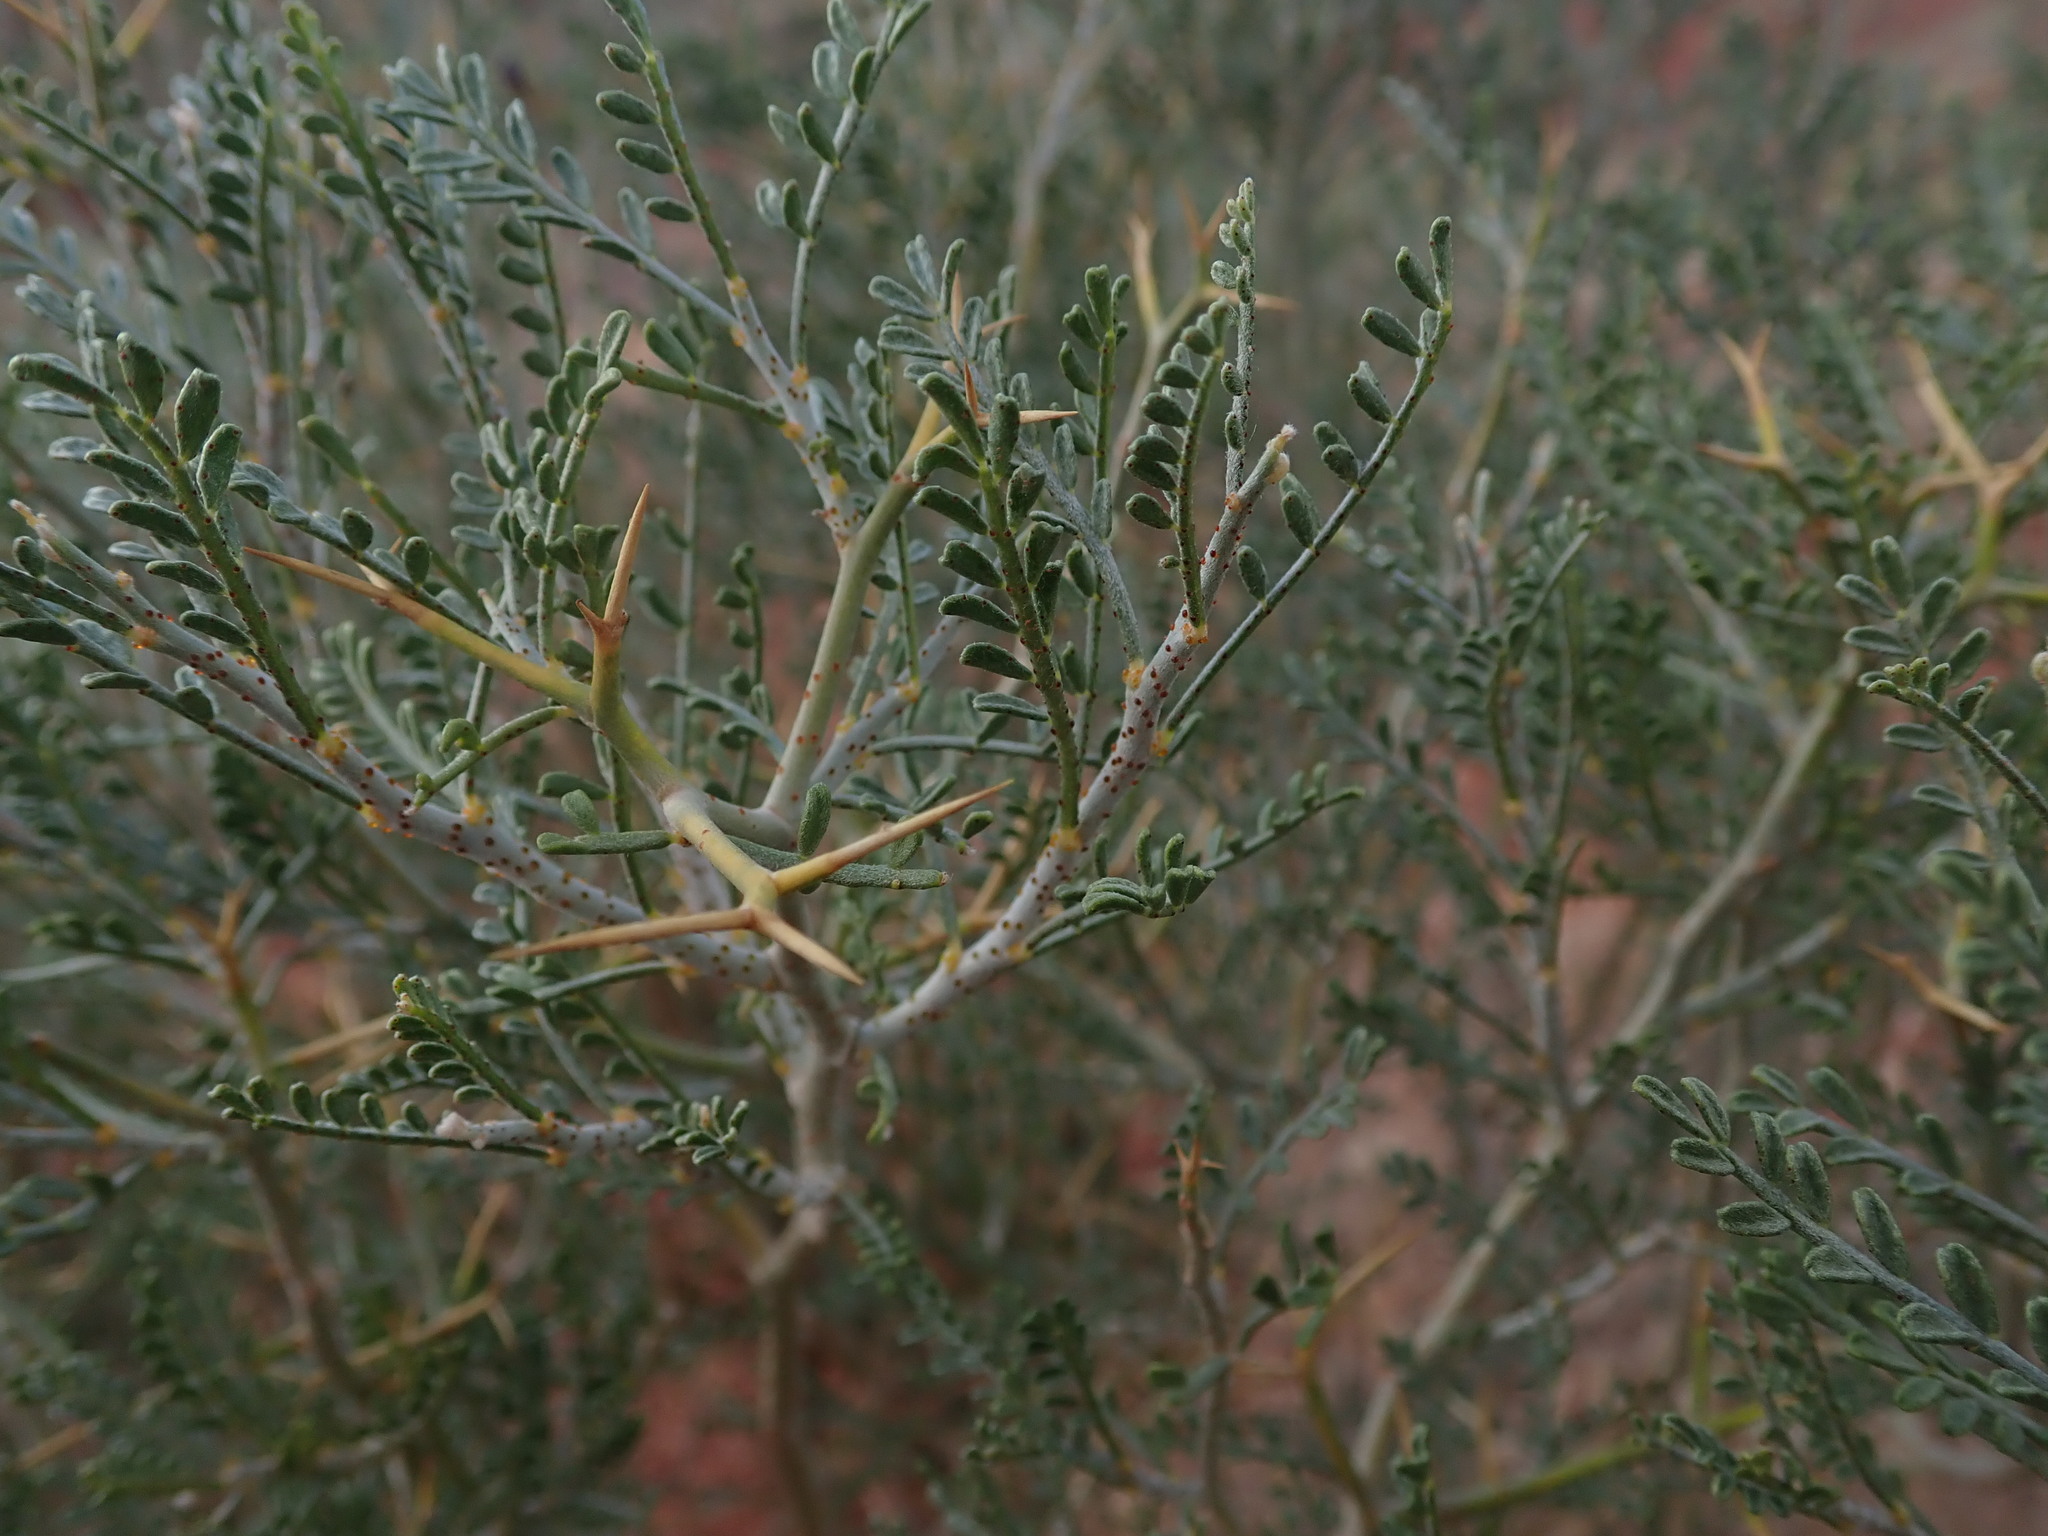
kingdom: Plantae
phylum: Tracheophyta
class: Magnoliopsida
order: Fabales
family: Fabaceae
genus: Psorothamnus
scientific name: Psorothamnus thompsoniae
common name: Thompson's dalea
